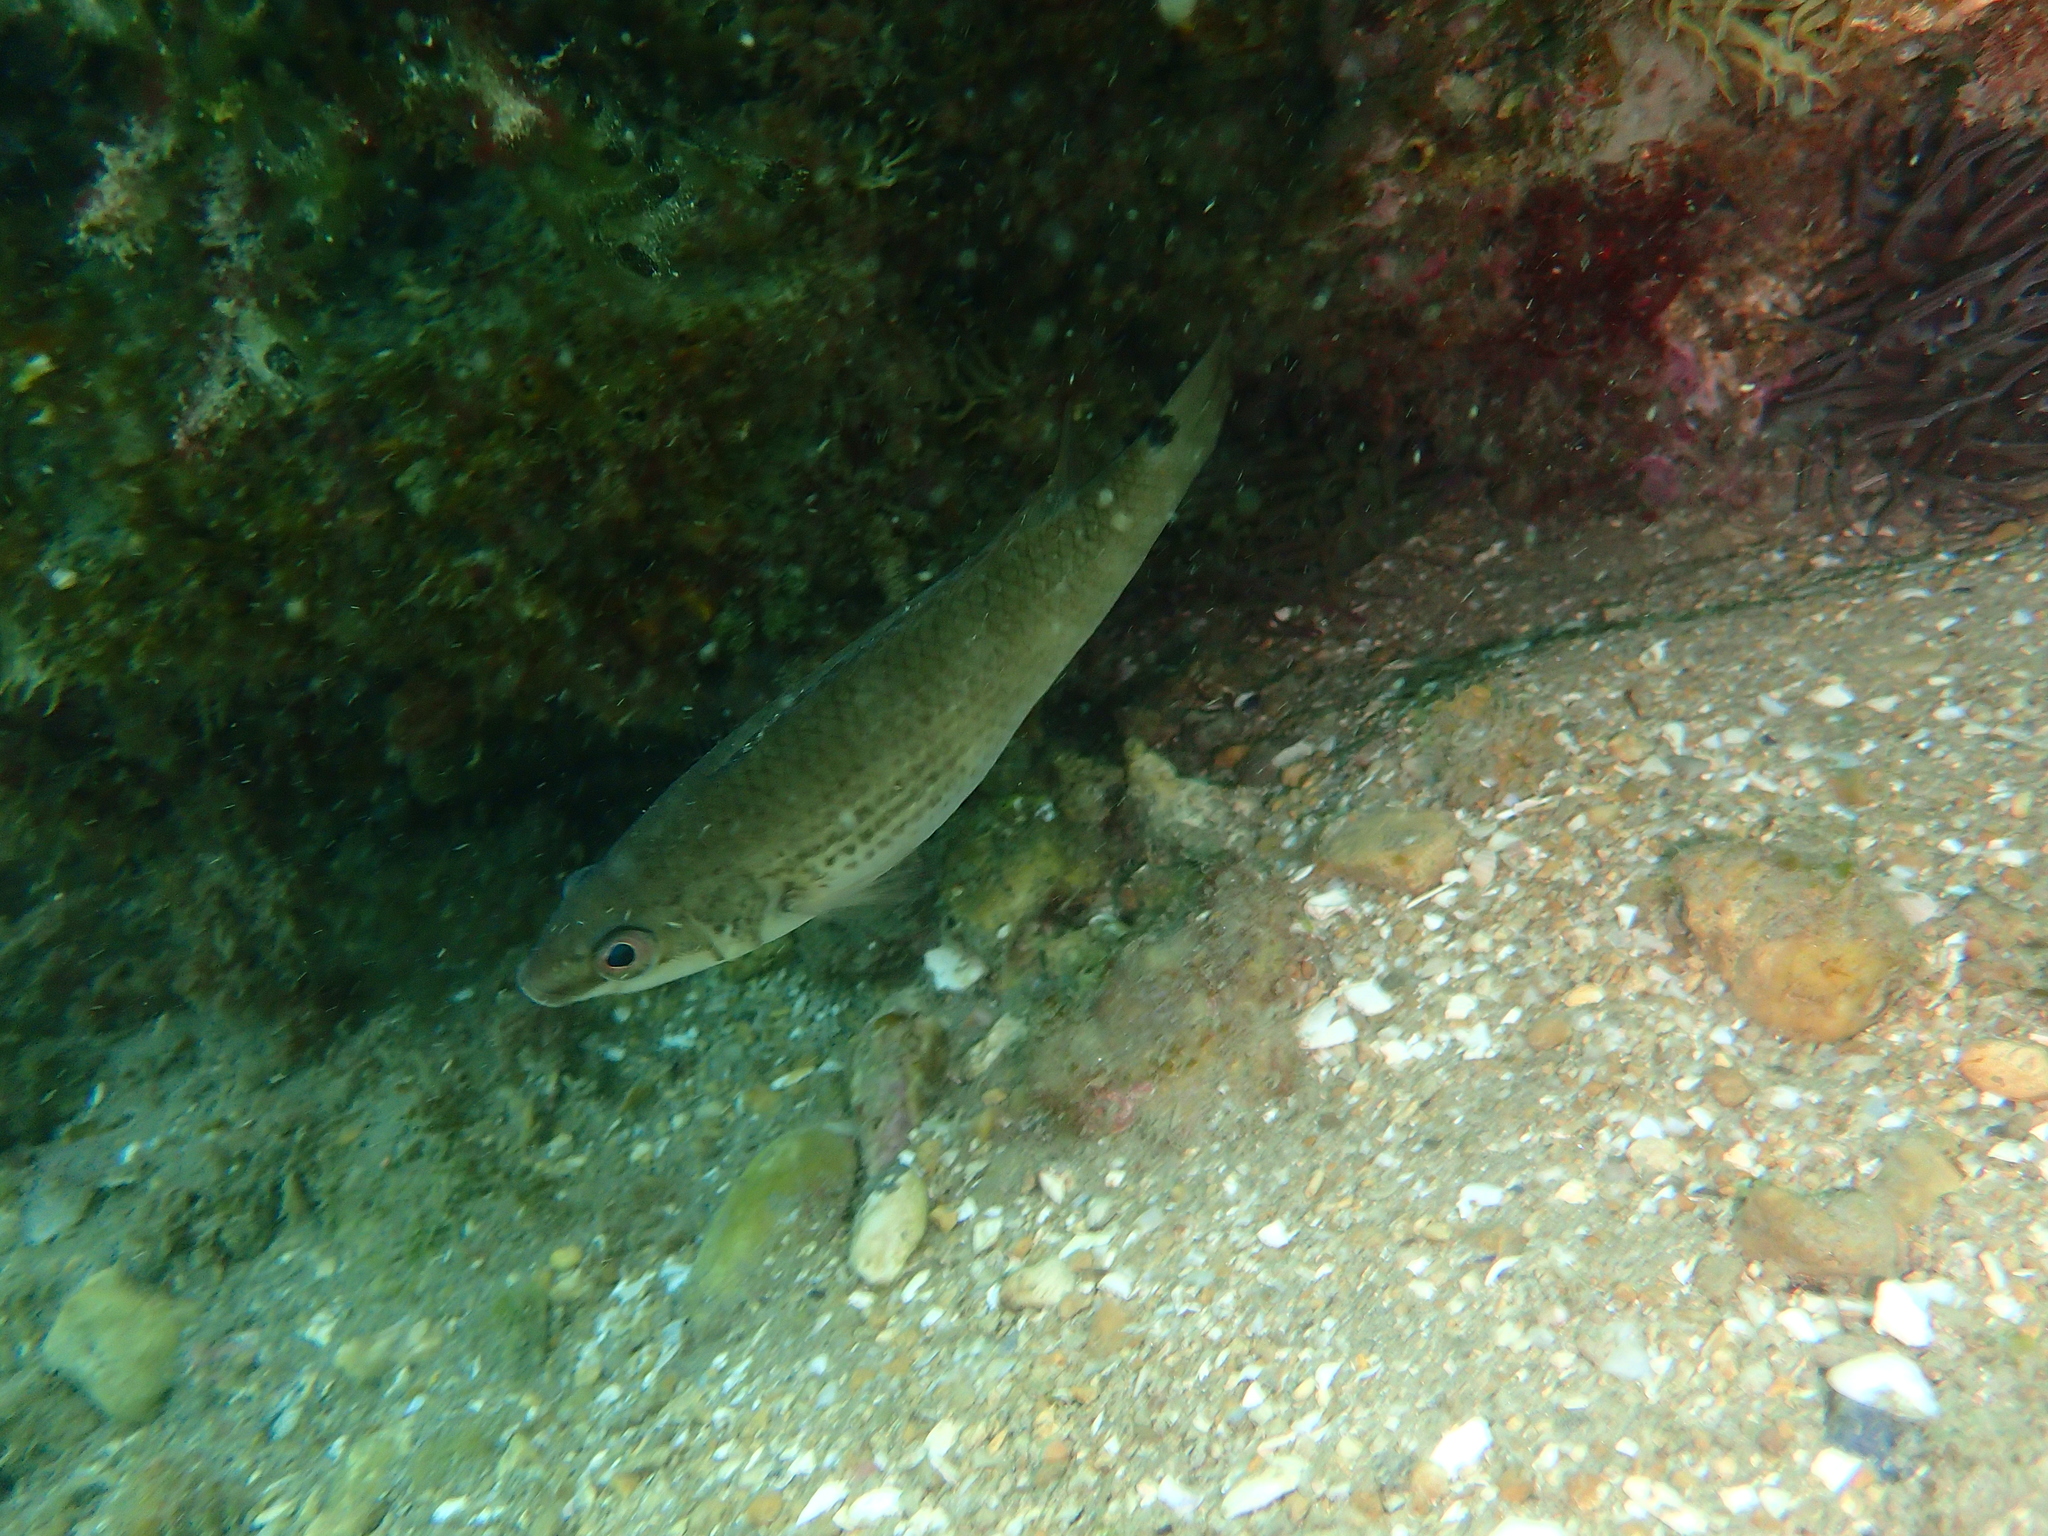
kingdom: Animalia
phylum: Chordata
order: Perciformes
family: Labridae
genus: Ctenolabrus
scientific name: Ctenolabrus rupestris
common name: Goldsinny
